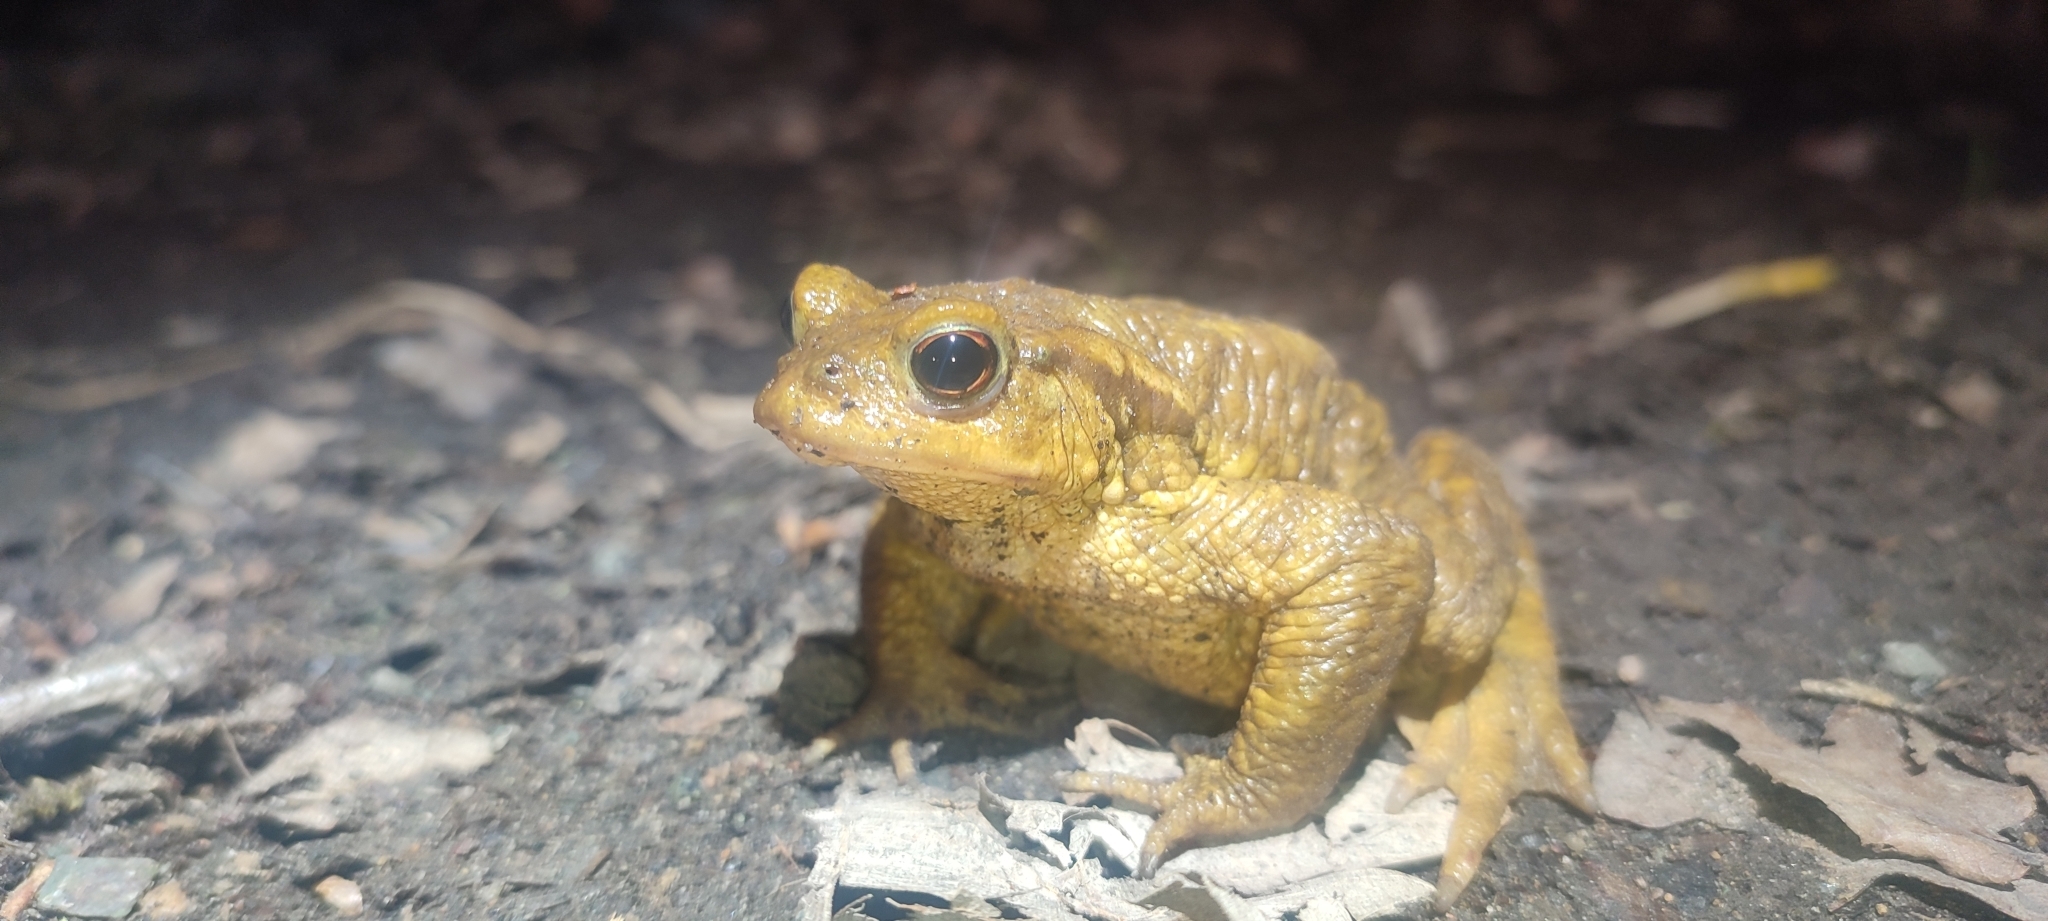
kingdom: Animalia
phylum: Chordata
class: Amphibia
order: Anura
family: Bufonidae
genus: Bufo
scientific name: Bufo spinosus
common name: Western common toad
